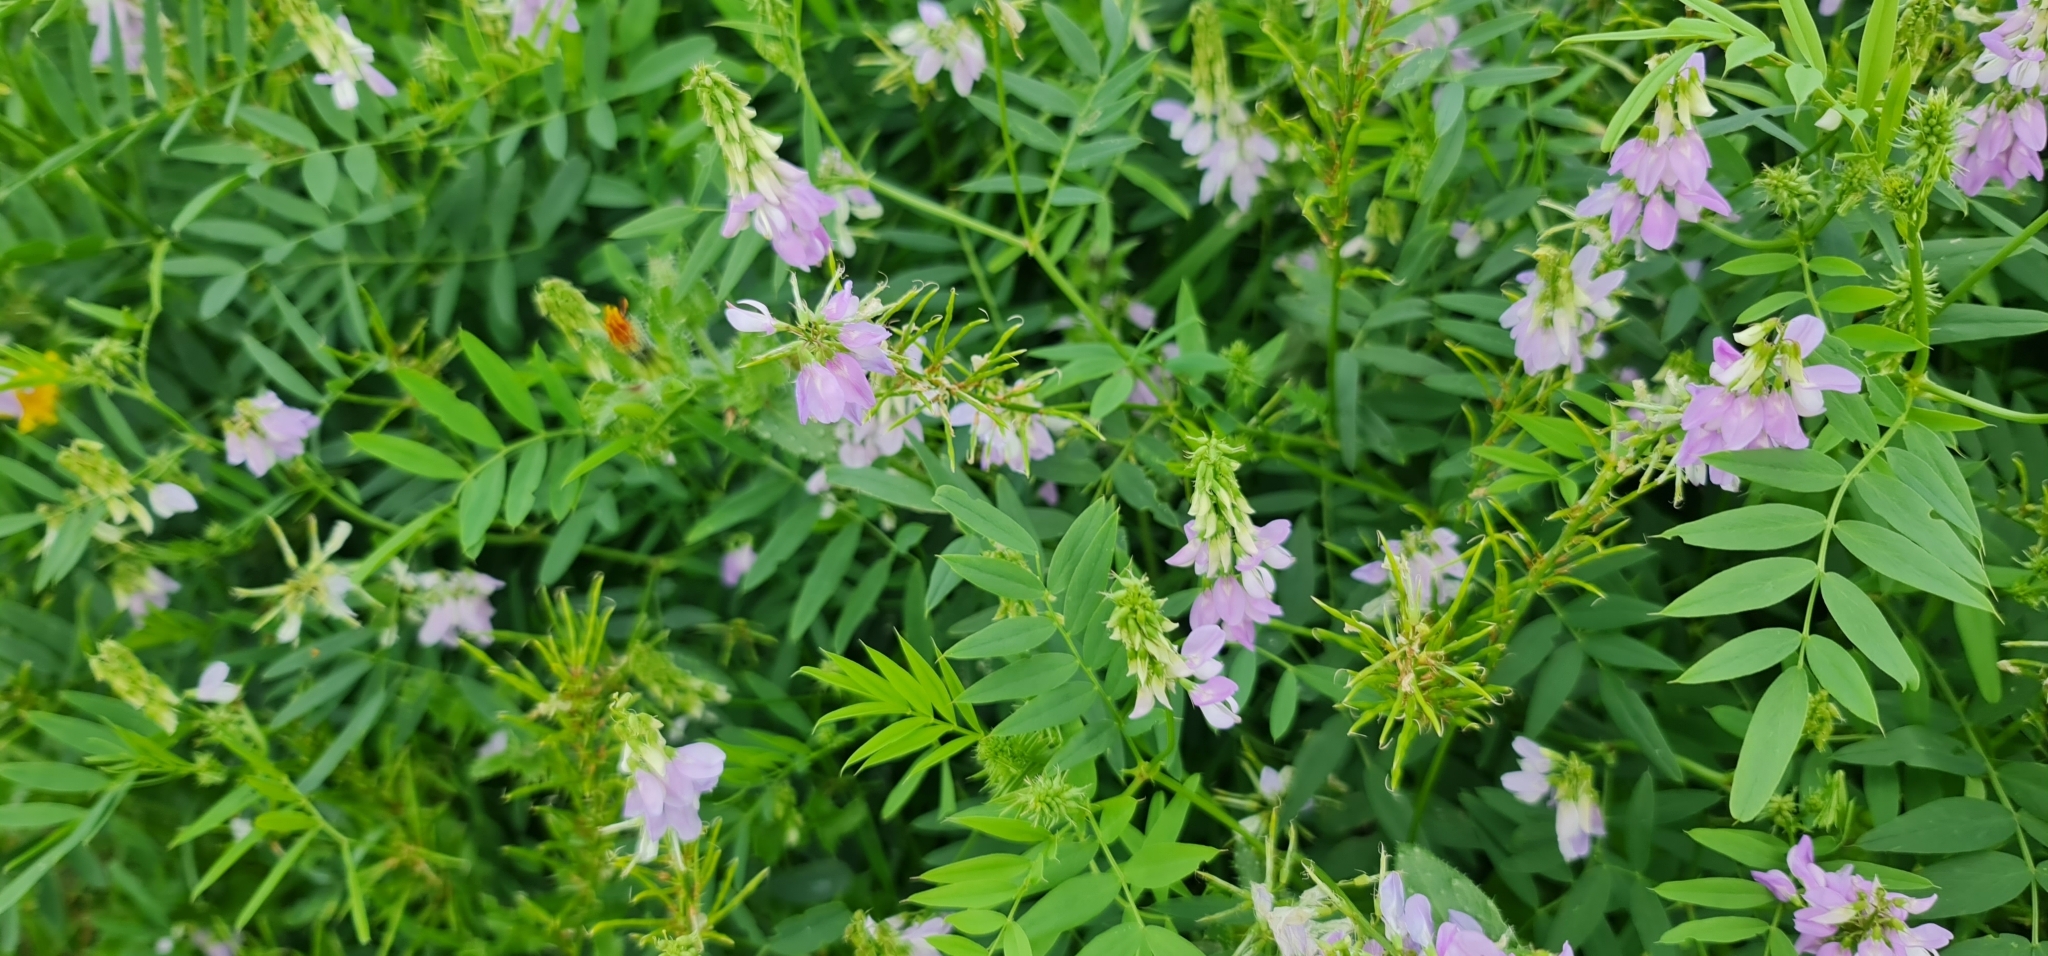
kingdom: Plantae
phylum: Tracheophyta
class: Magnoliopsida
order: Fabales
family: Fabaceae
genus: Galega
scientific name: Galega officinalis
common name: Goat's-rue
